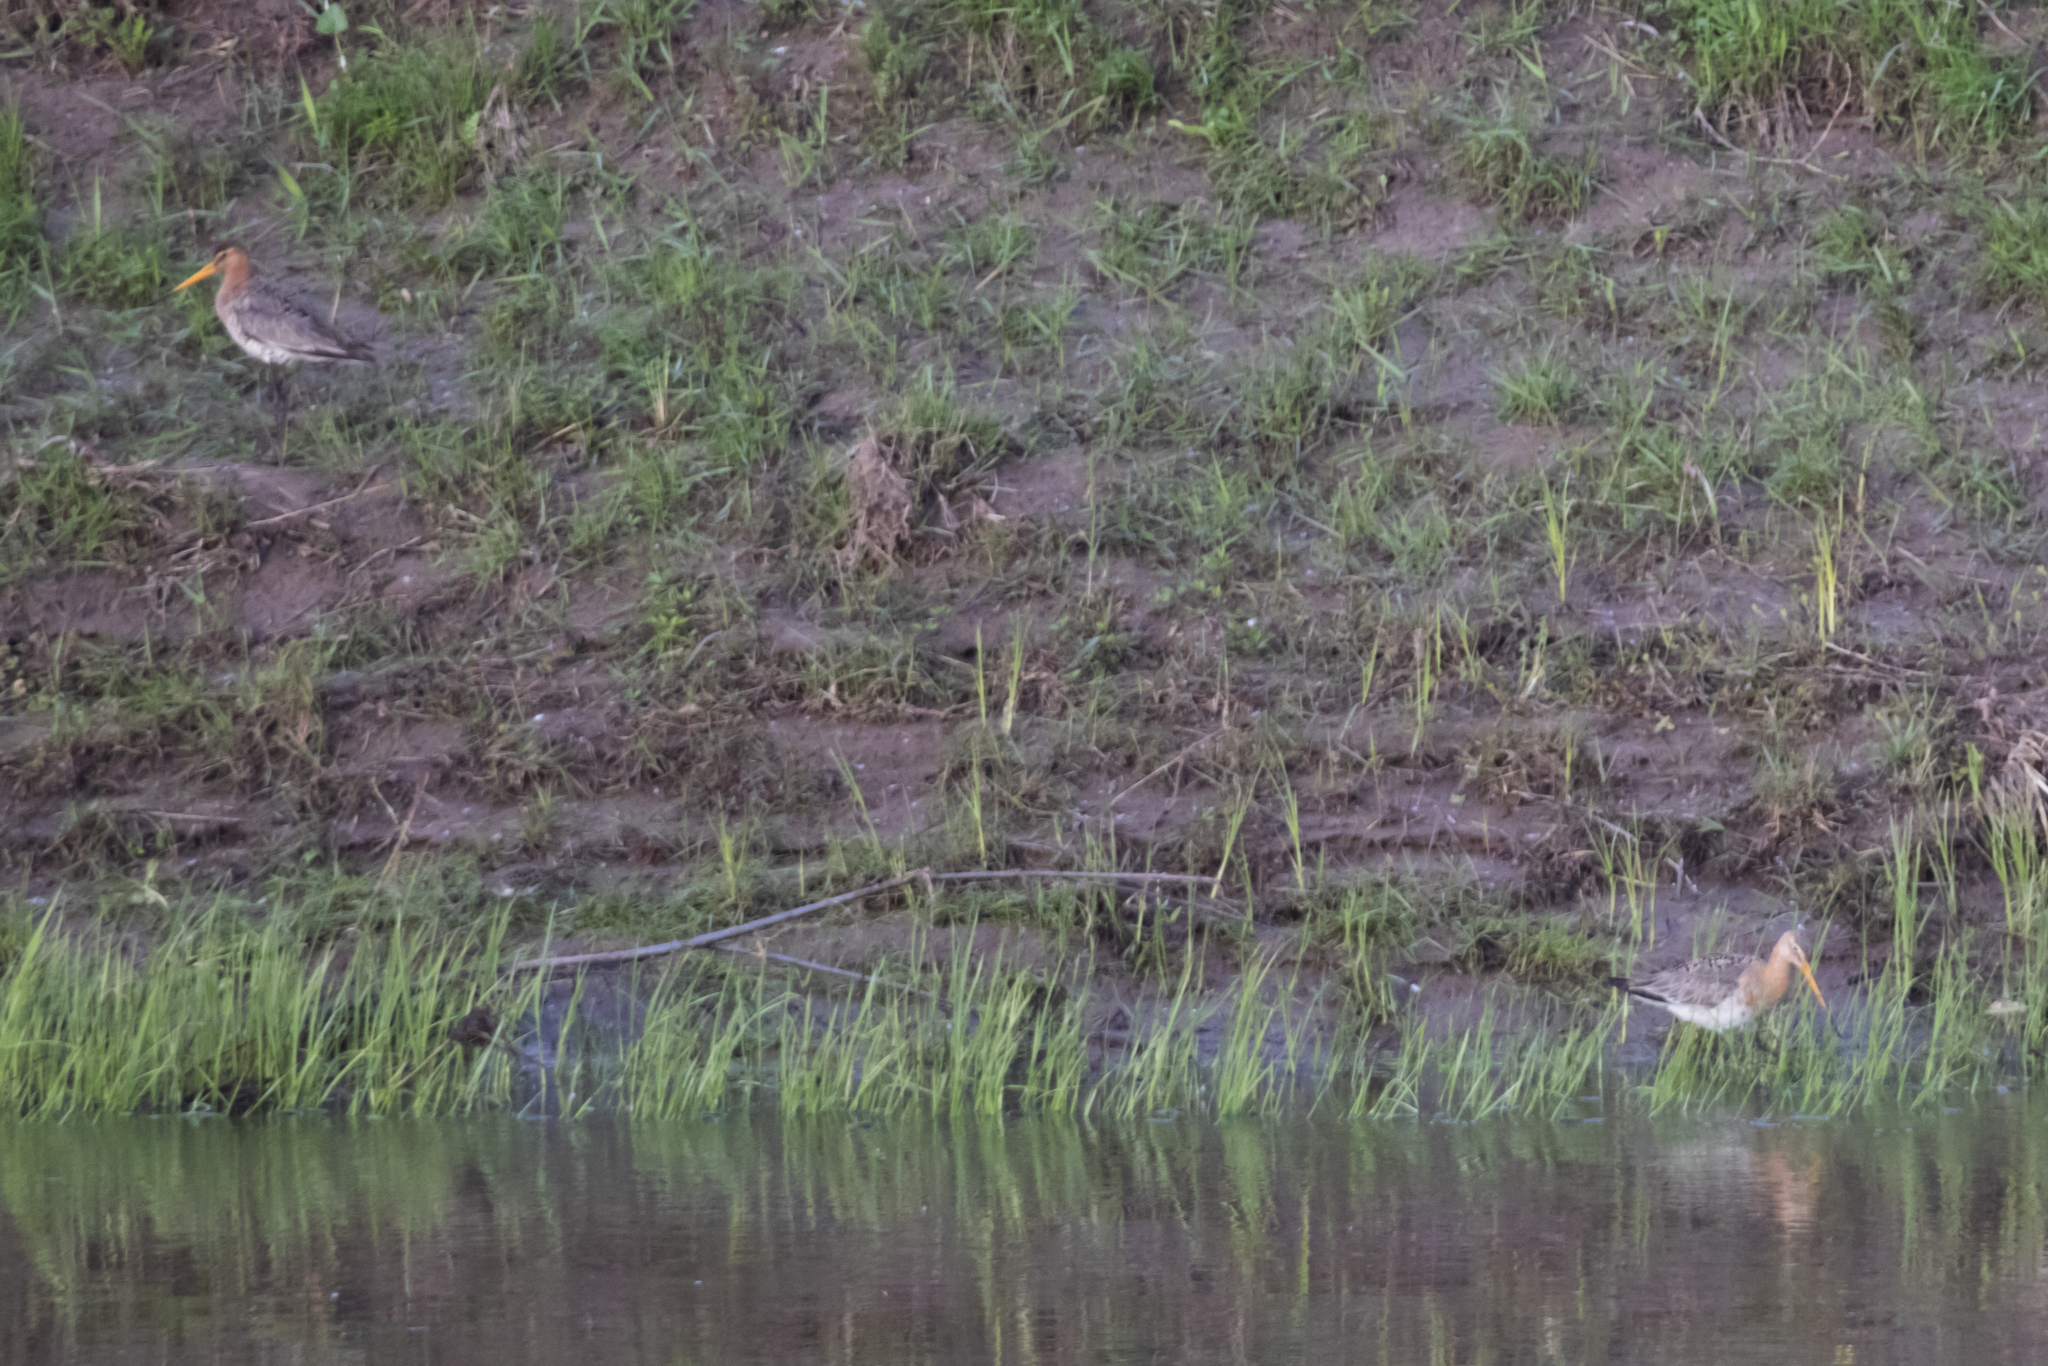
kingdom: Animalia
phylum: Chordata
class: Aves
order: Charadriiformes
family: Scolopacidae
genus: Limosa
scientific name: Limosa limosa
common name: Black-tailed godwit
